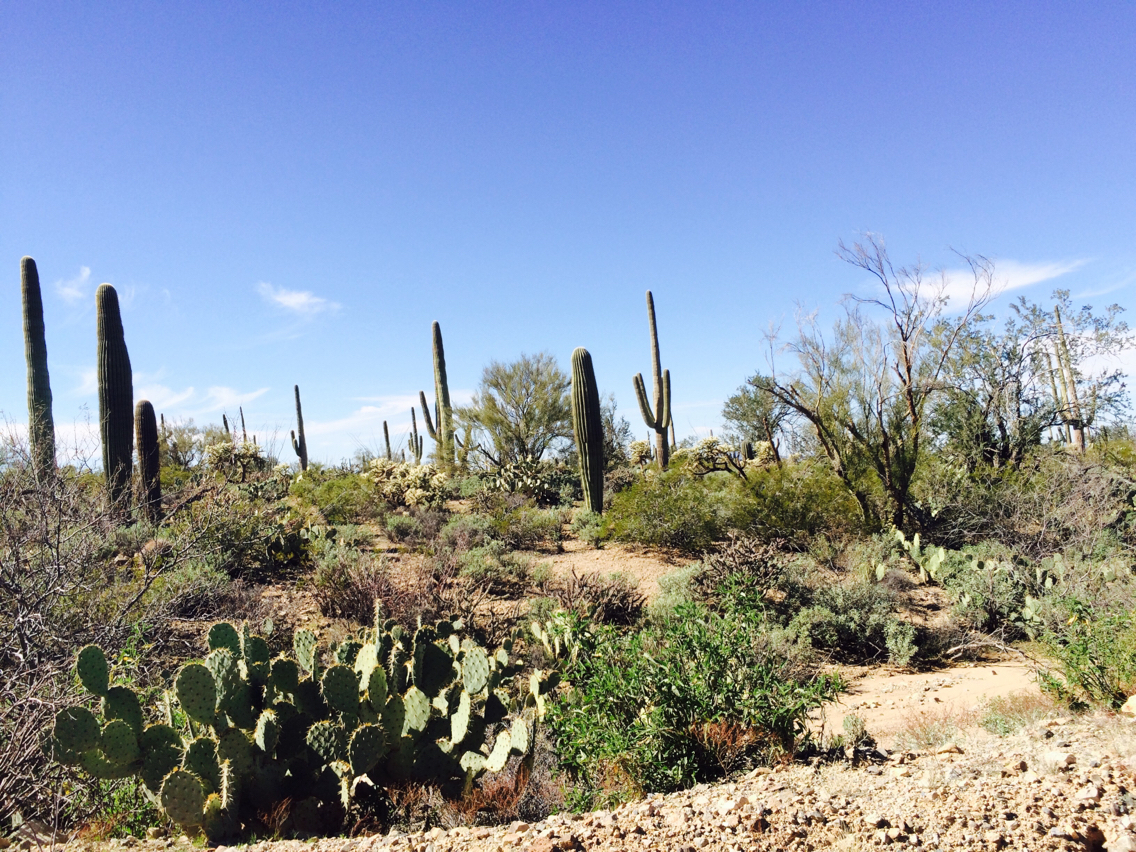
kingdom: Plantae
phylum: Tracheophyta
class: Magnoliopsida
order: Caryophyllales
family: Cactaceae
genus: Carnegiea
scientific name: Carnegiea gigantea
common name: Saguaro
